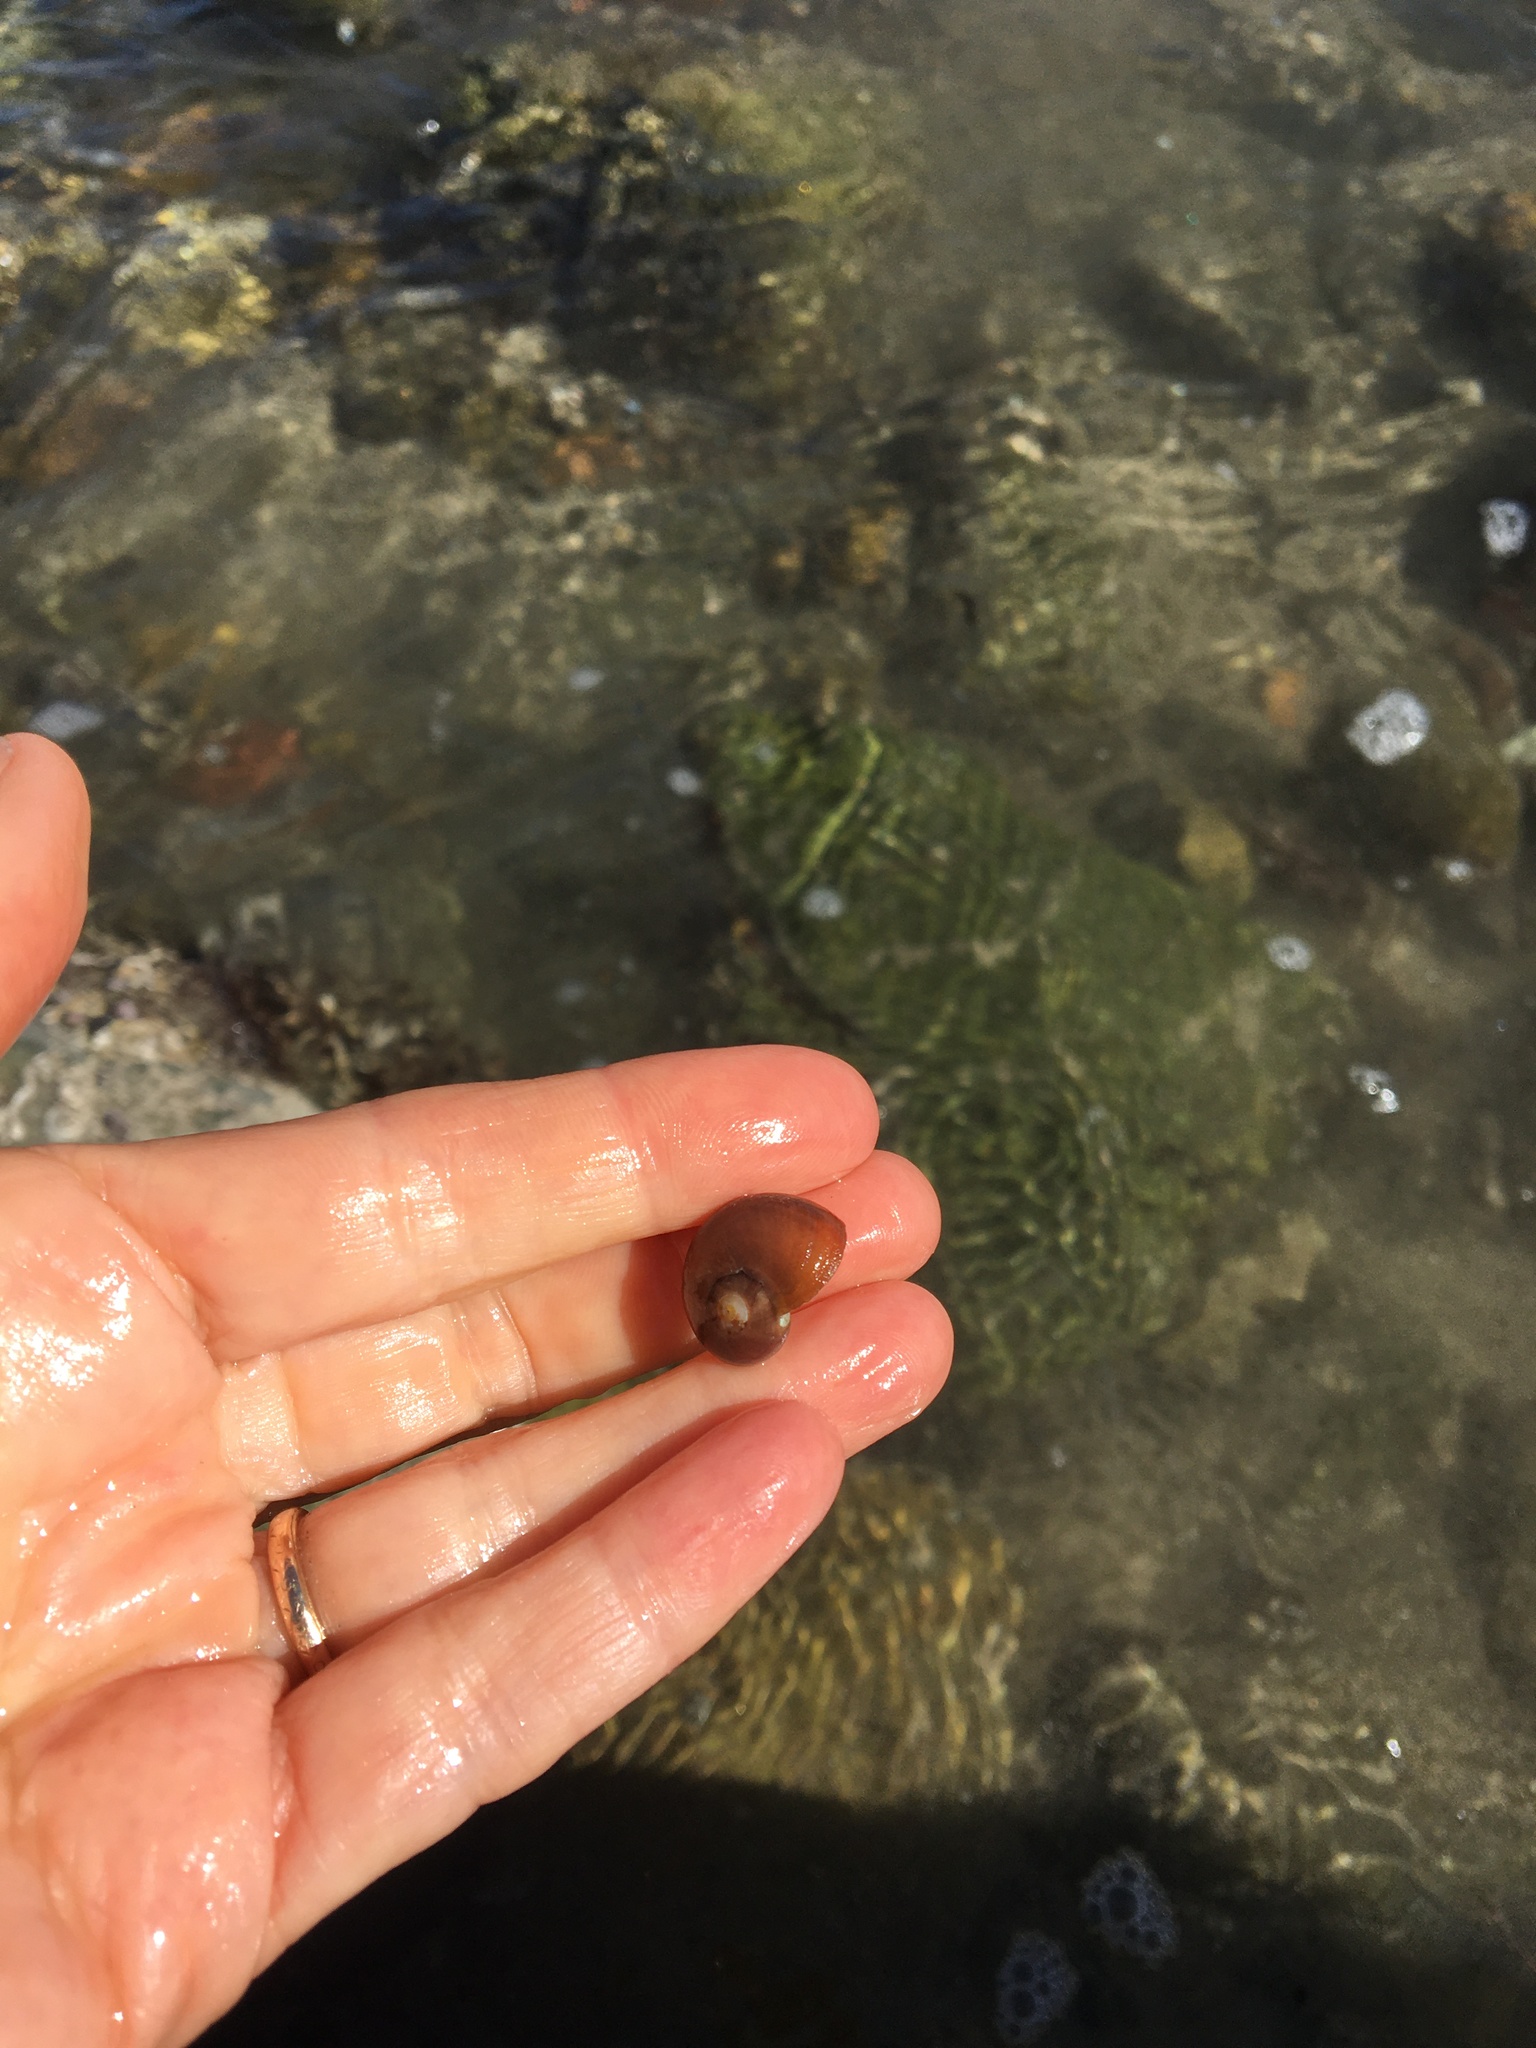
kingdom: Animalia
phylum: Mollusca
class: Gastropoda
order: Trochida
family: Tegulidae
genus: Norrisia
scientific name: Norrisia norrisii
